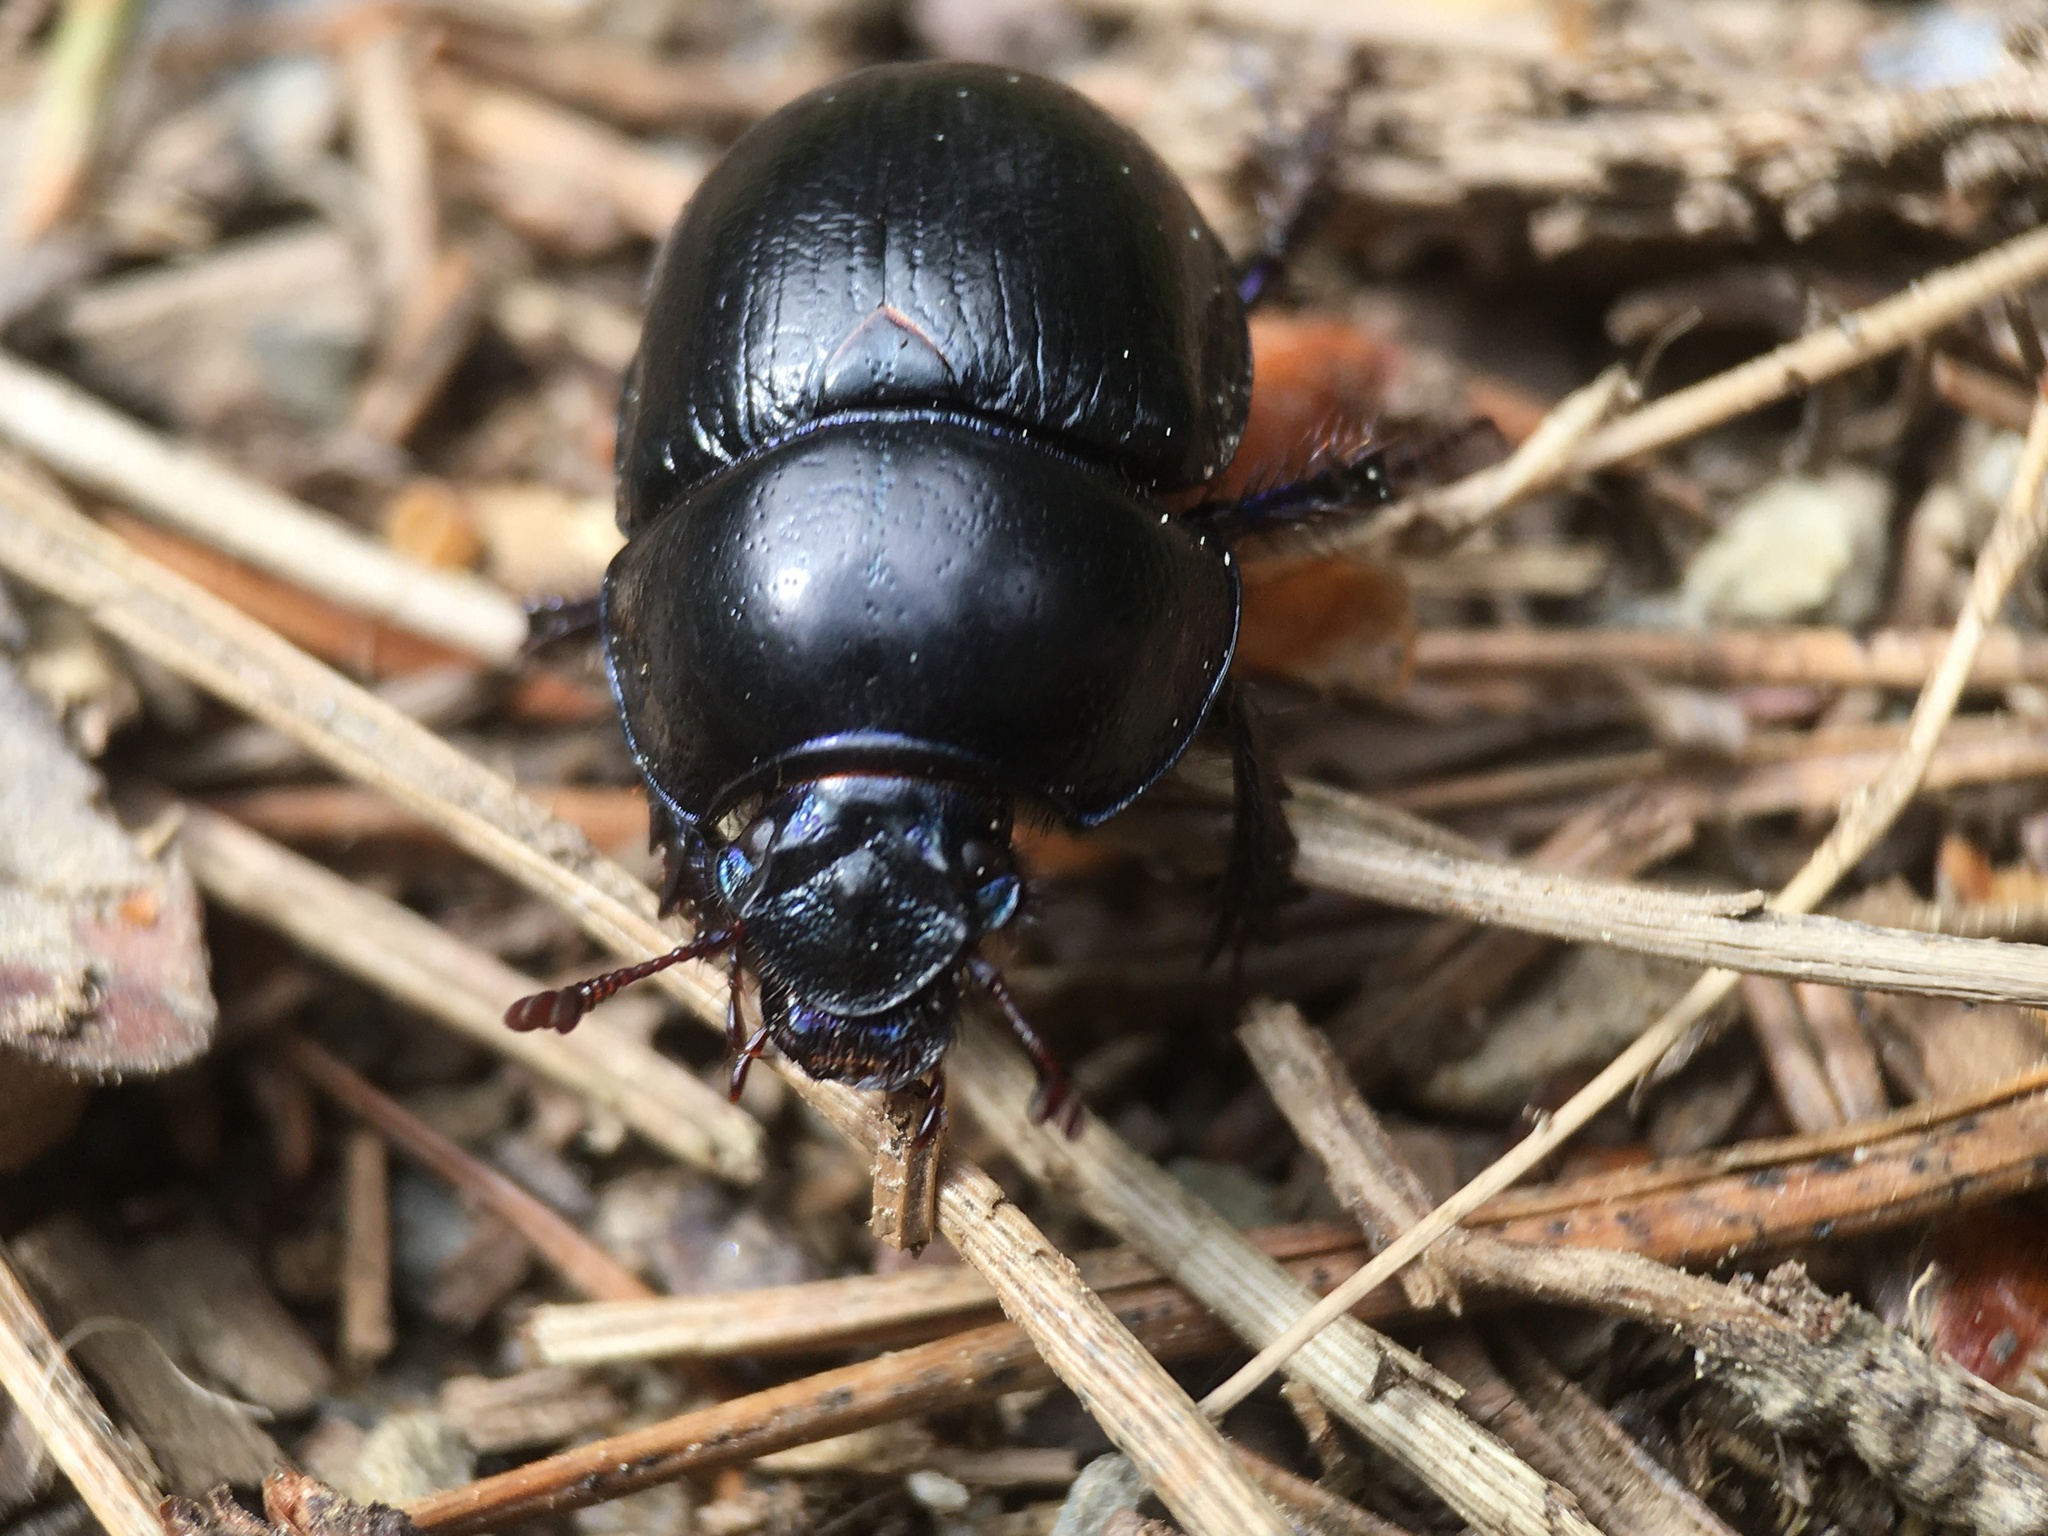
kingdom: Animalia
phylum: Arthropoda
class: Insecta
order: Coleoptera
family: Geotrupidae
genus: Anoplotrupes
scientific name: Anoplotrupes stercorosus
